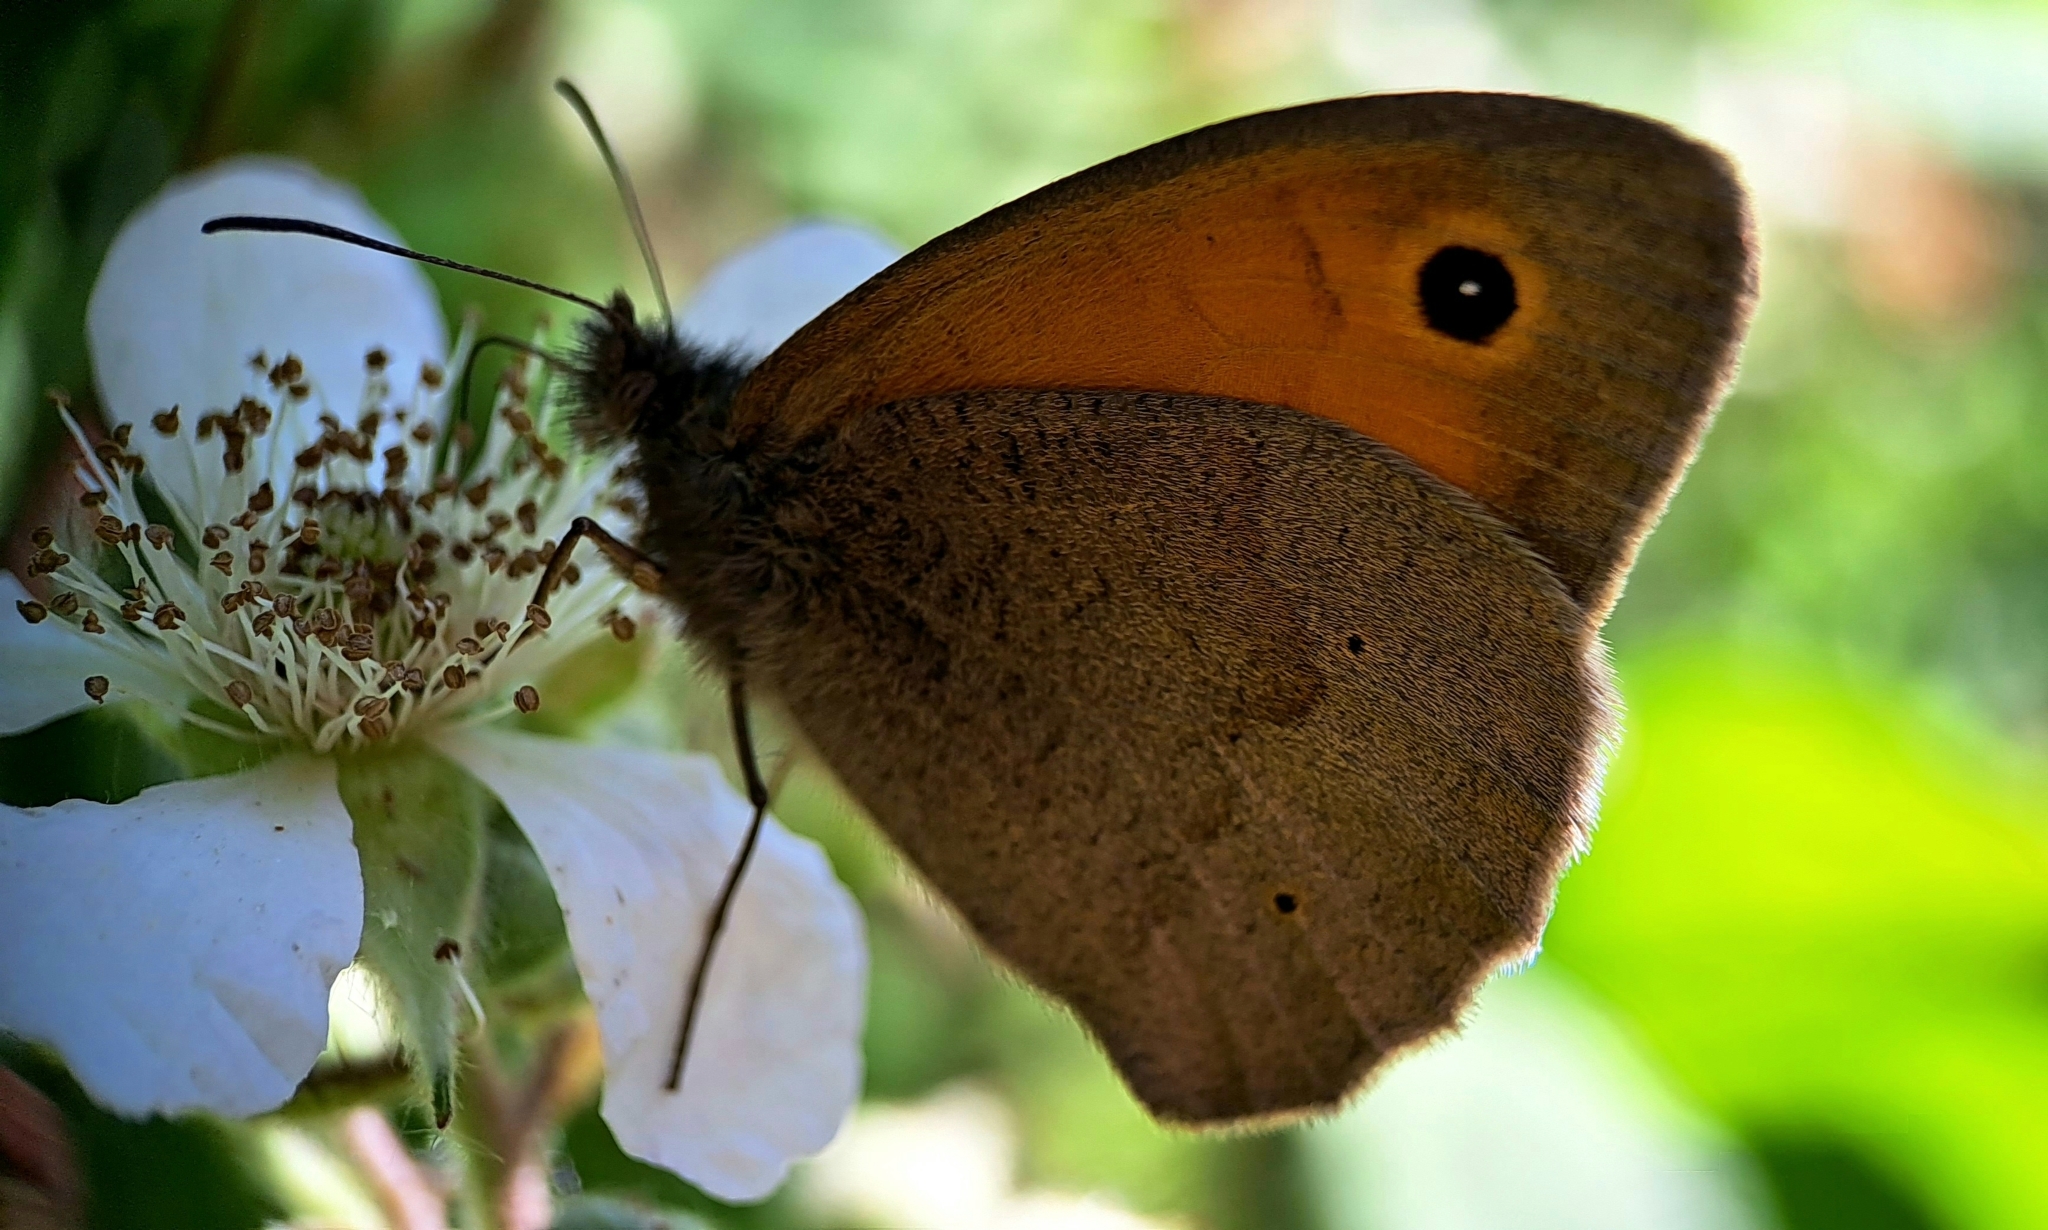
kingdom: Animalia
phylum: Arthropoda
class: Insecta
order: Lepidoptera
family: Nymphalidae
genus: Maniola
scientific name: Maniola jurtina
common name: Meadow brown
